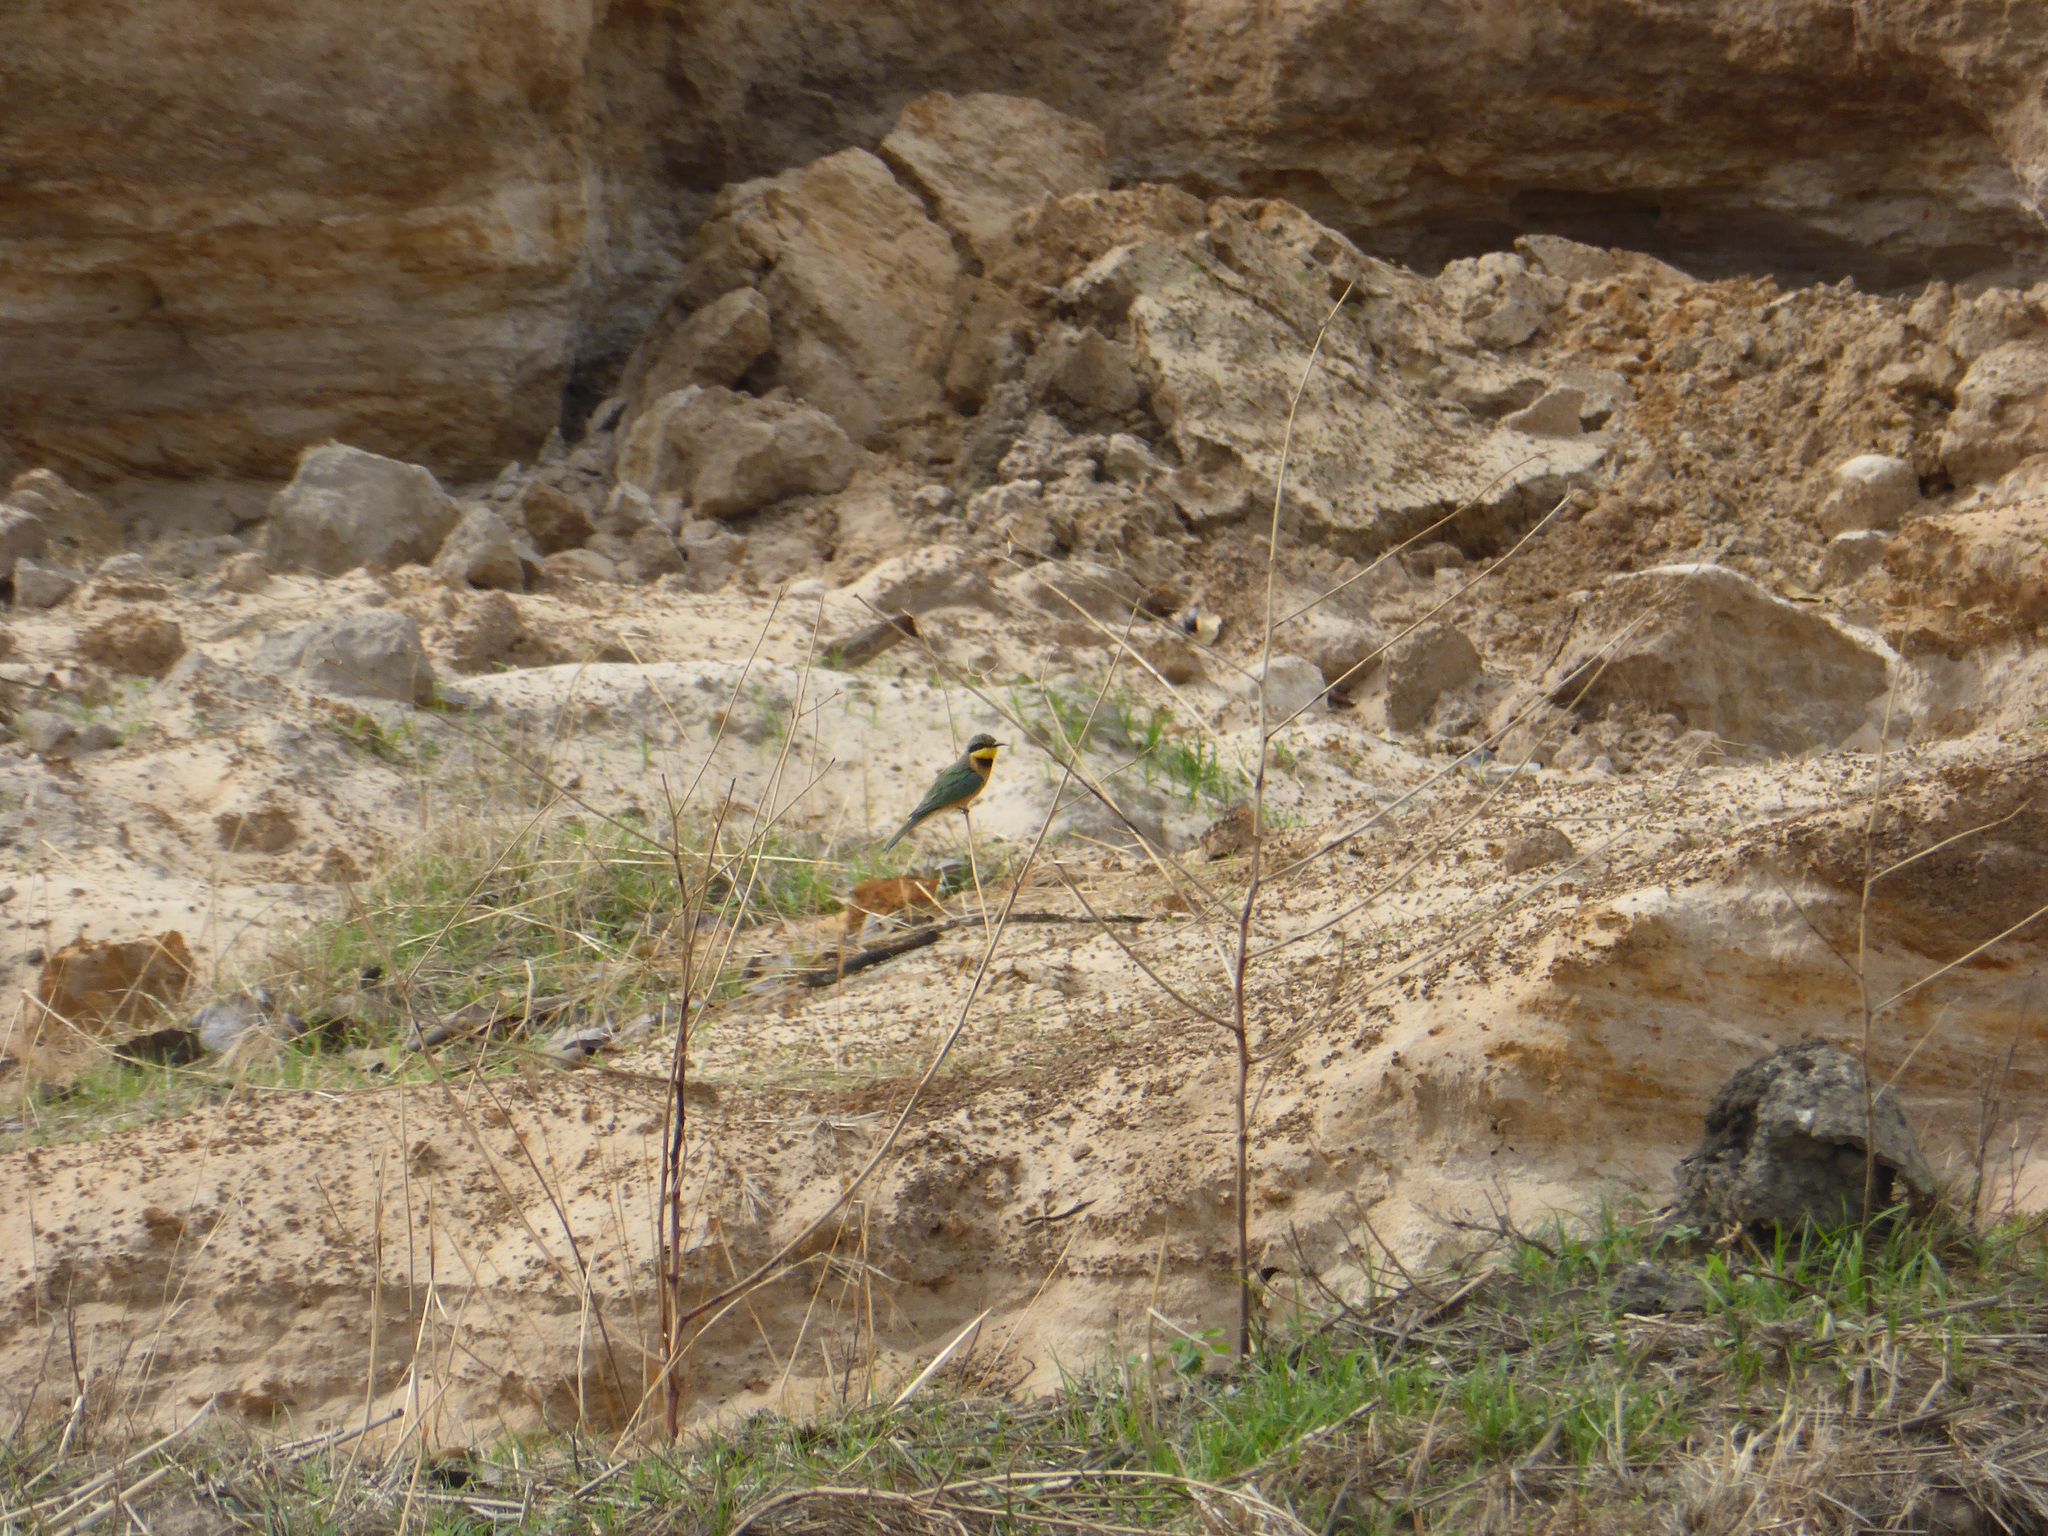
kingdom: Animalia
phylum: Chordata
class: Aves
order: Coraciiformes
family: Meropidae
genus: Merops
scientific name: Merops pusillus
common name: Little bee-eater
